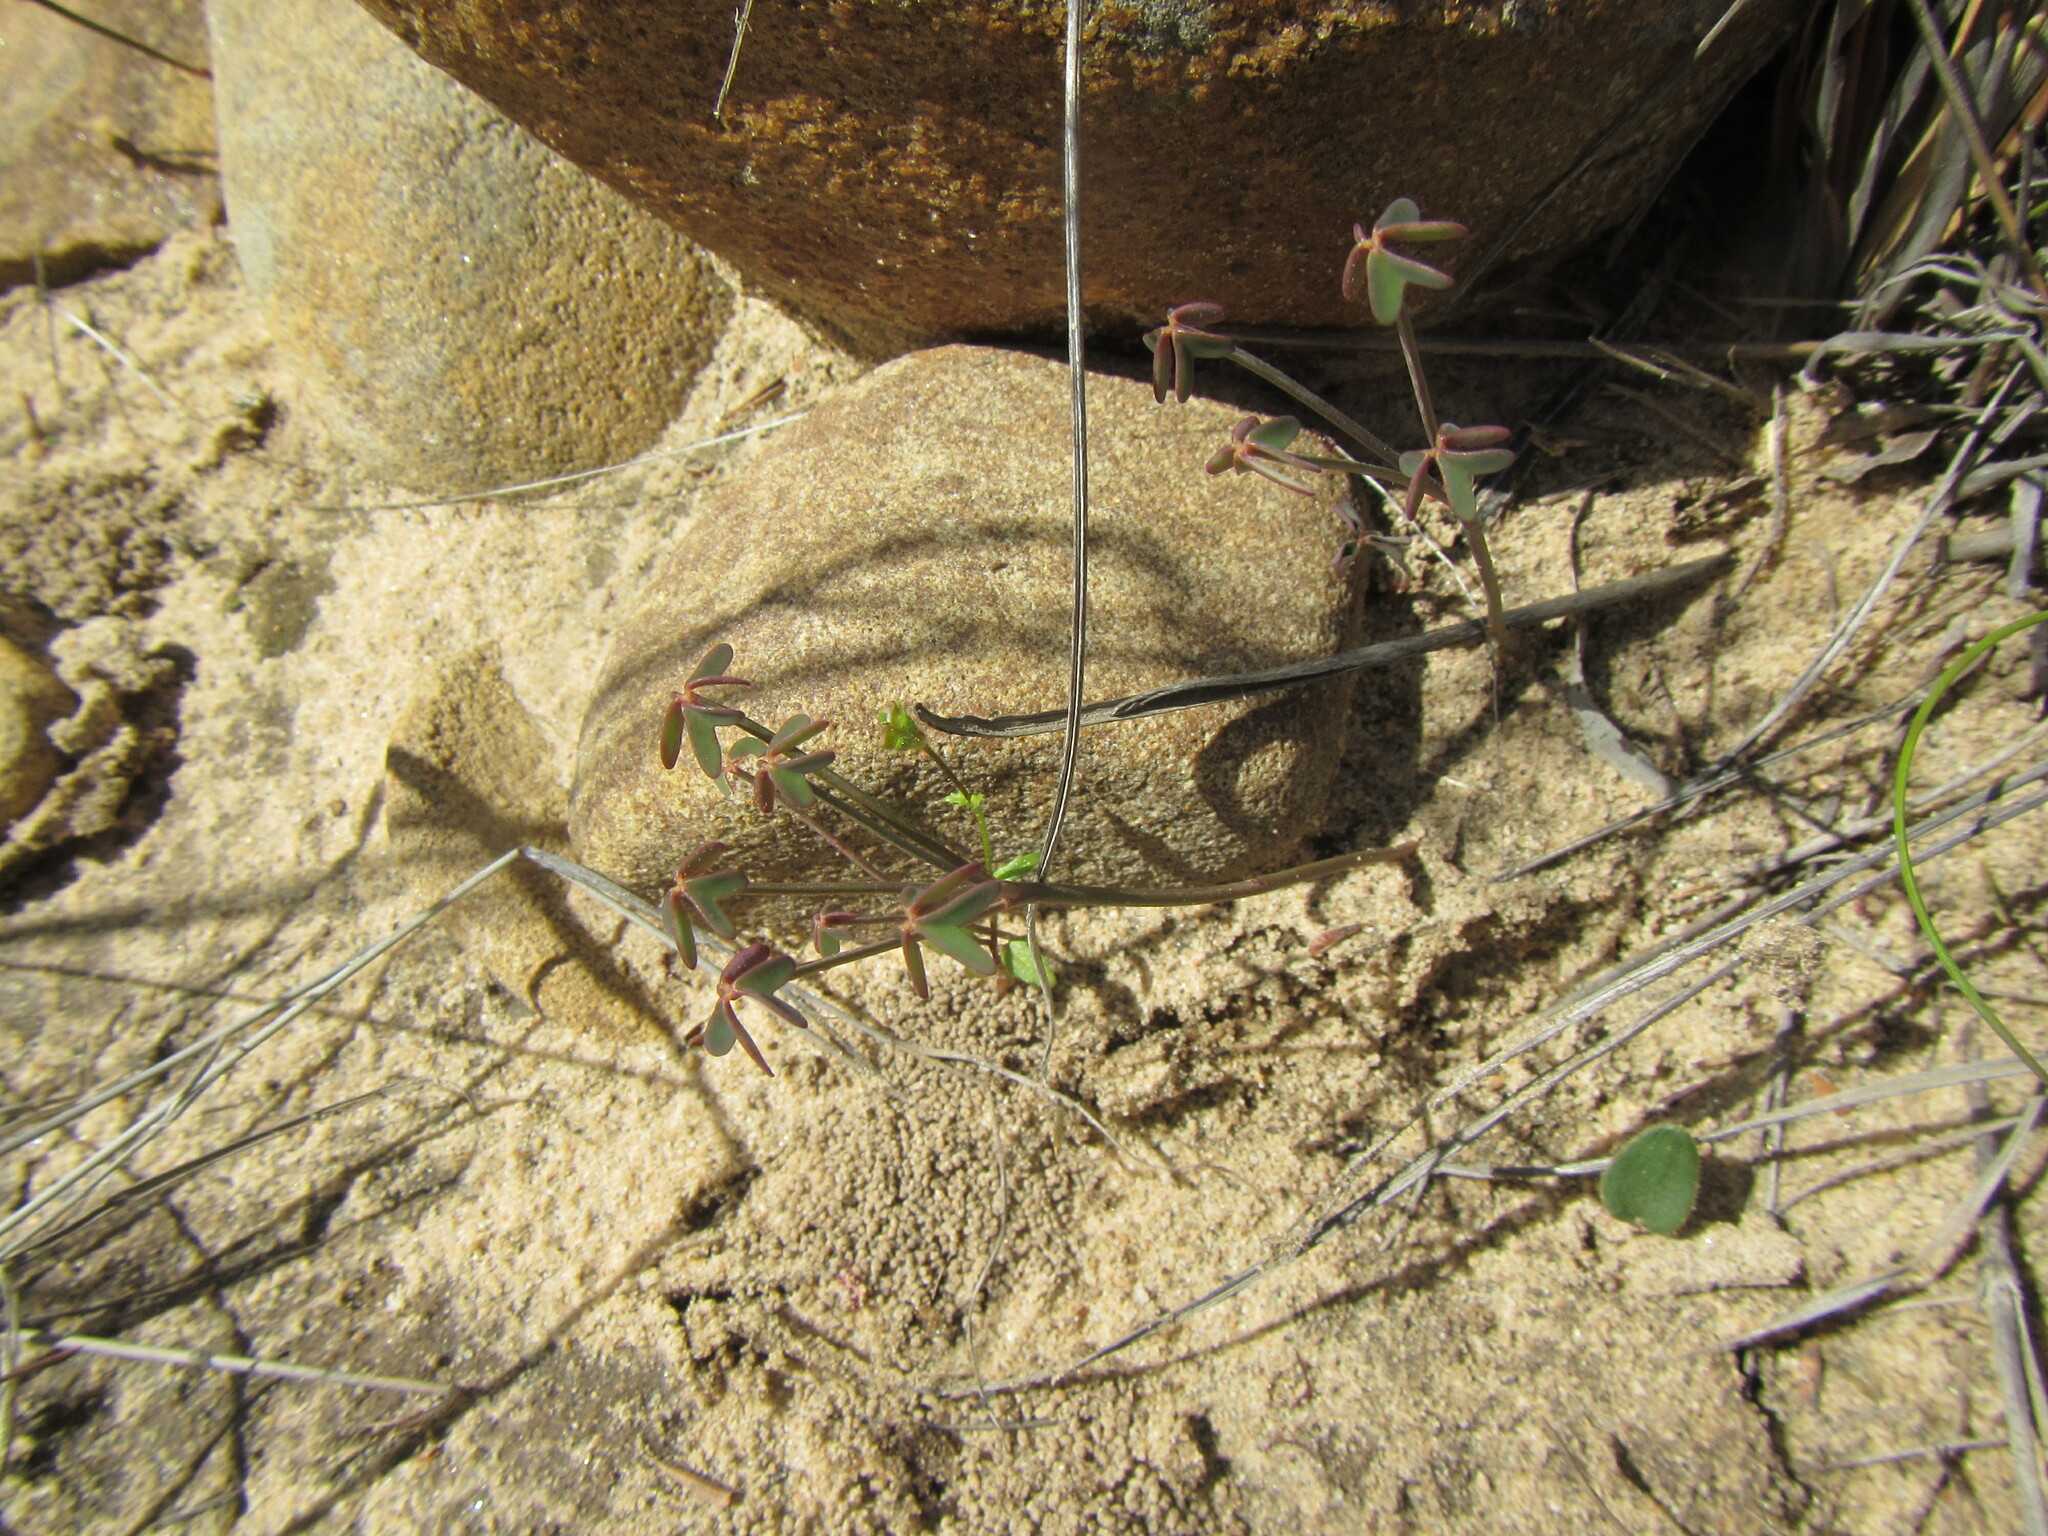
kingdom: Plantae
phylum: Tracheophyta
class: Magnoliopsida
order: Oxalidales
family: Oxalidaceae
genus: Oxalis
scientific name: Oxalis livida
